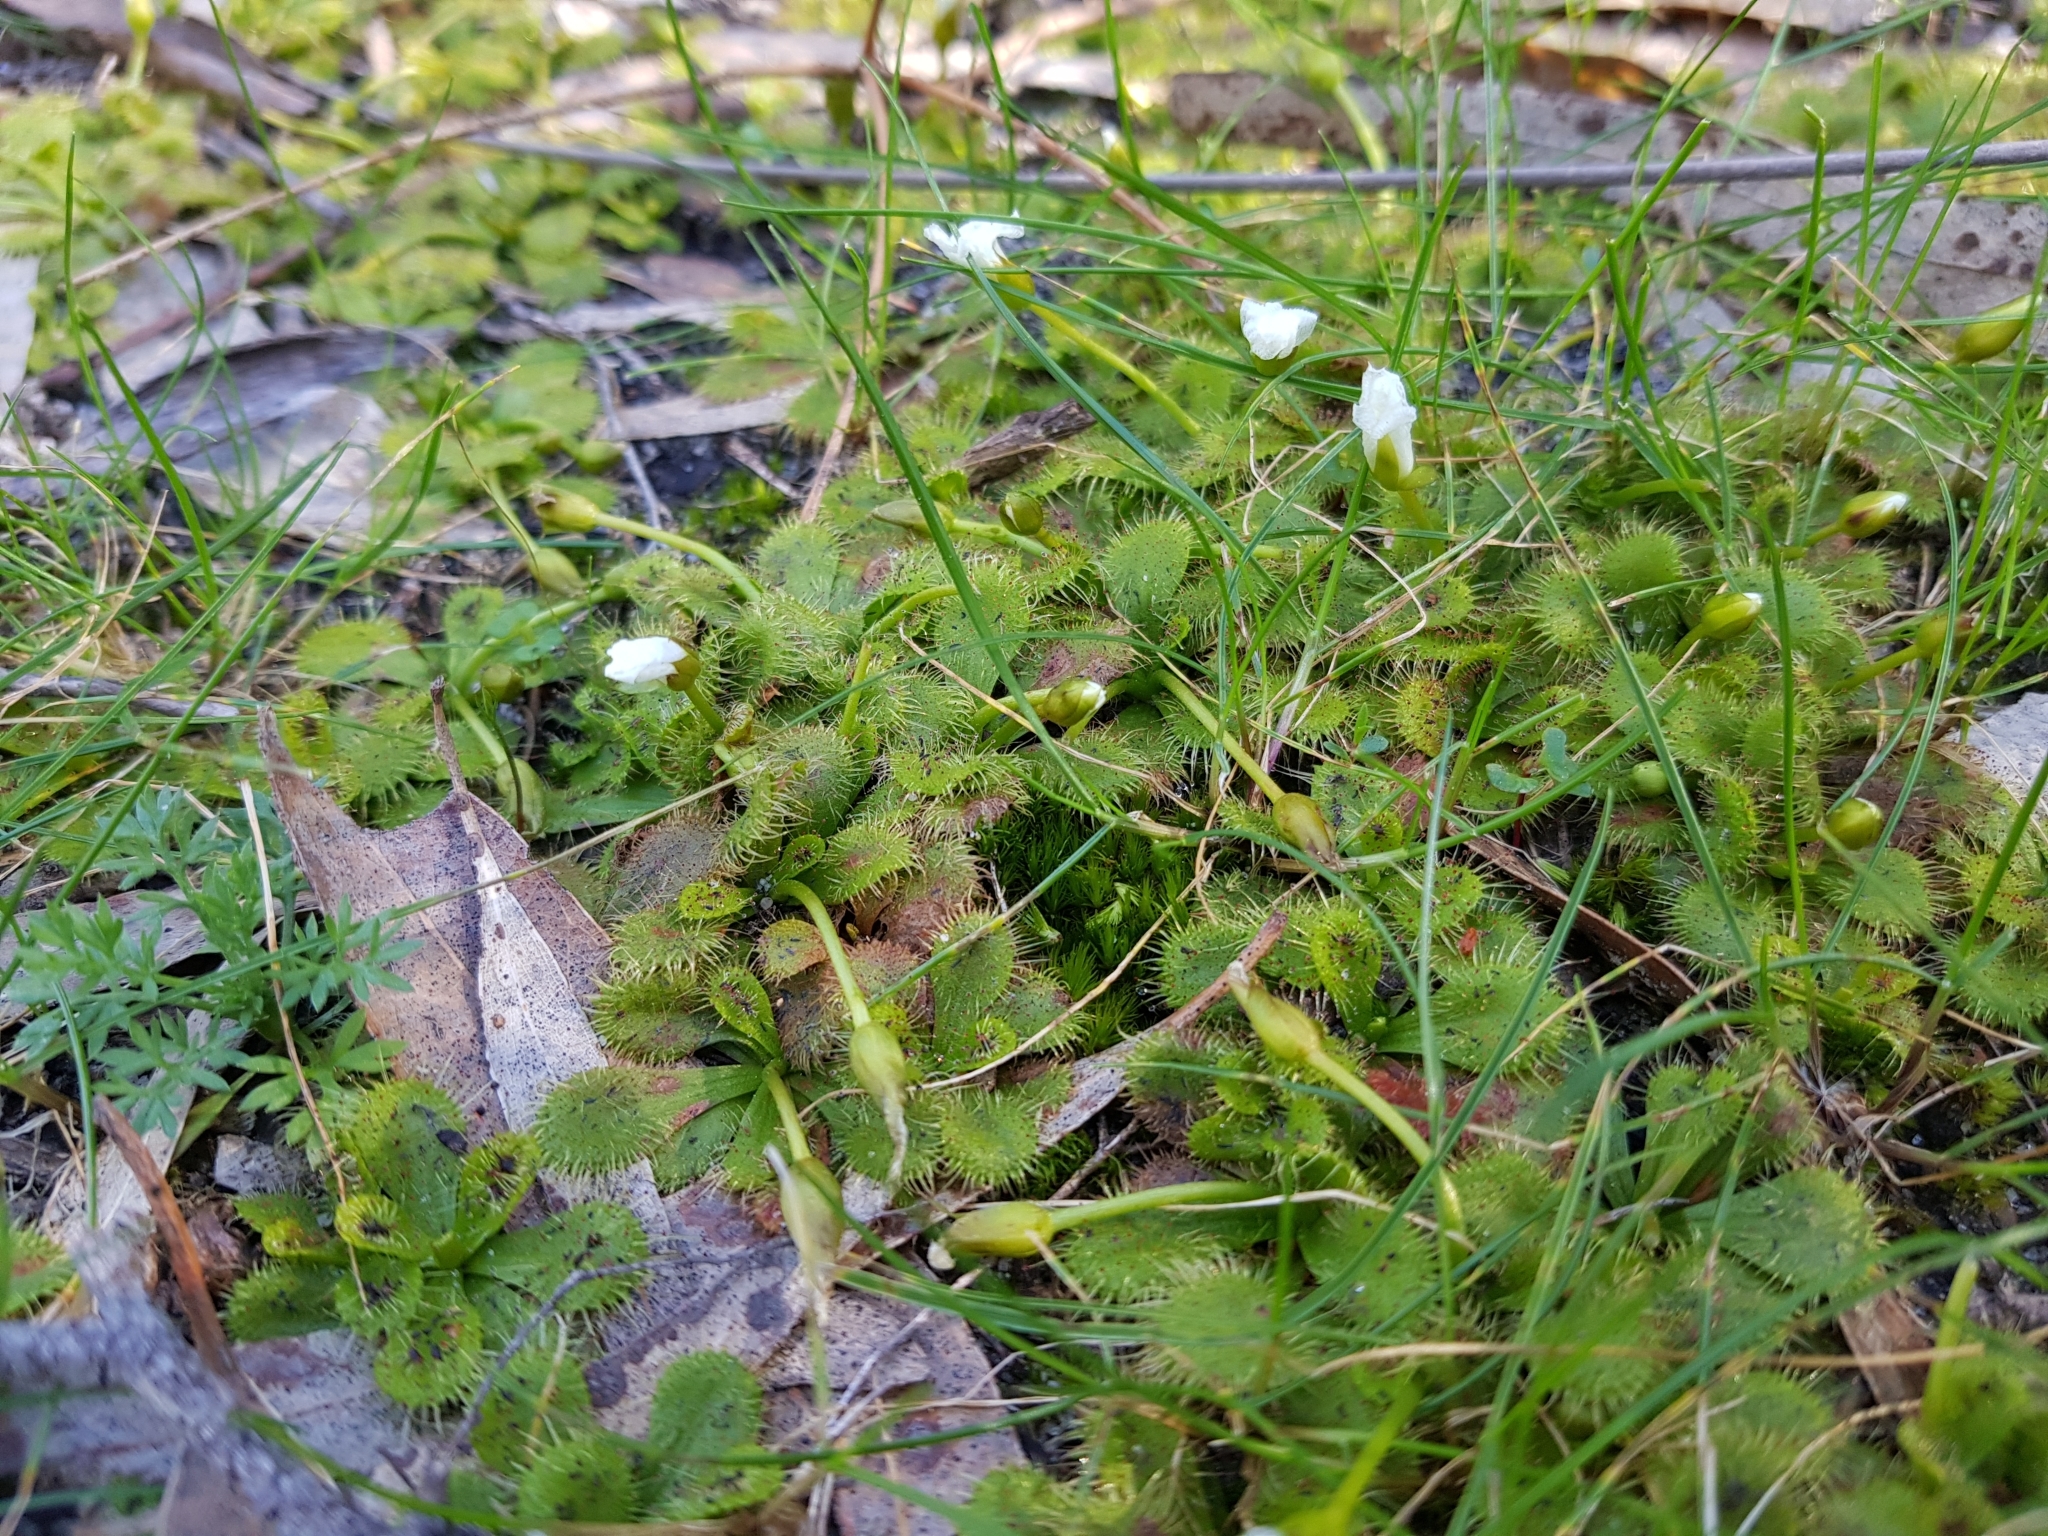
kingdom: Plantae
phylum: Tracheophyta
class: Magnoliopsida
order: Caryophyllales
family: Droseraceae
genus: Drosera
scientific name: Drosera aberrans
